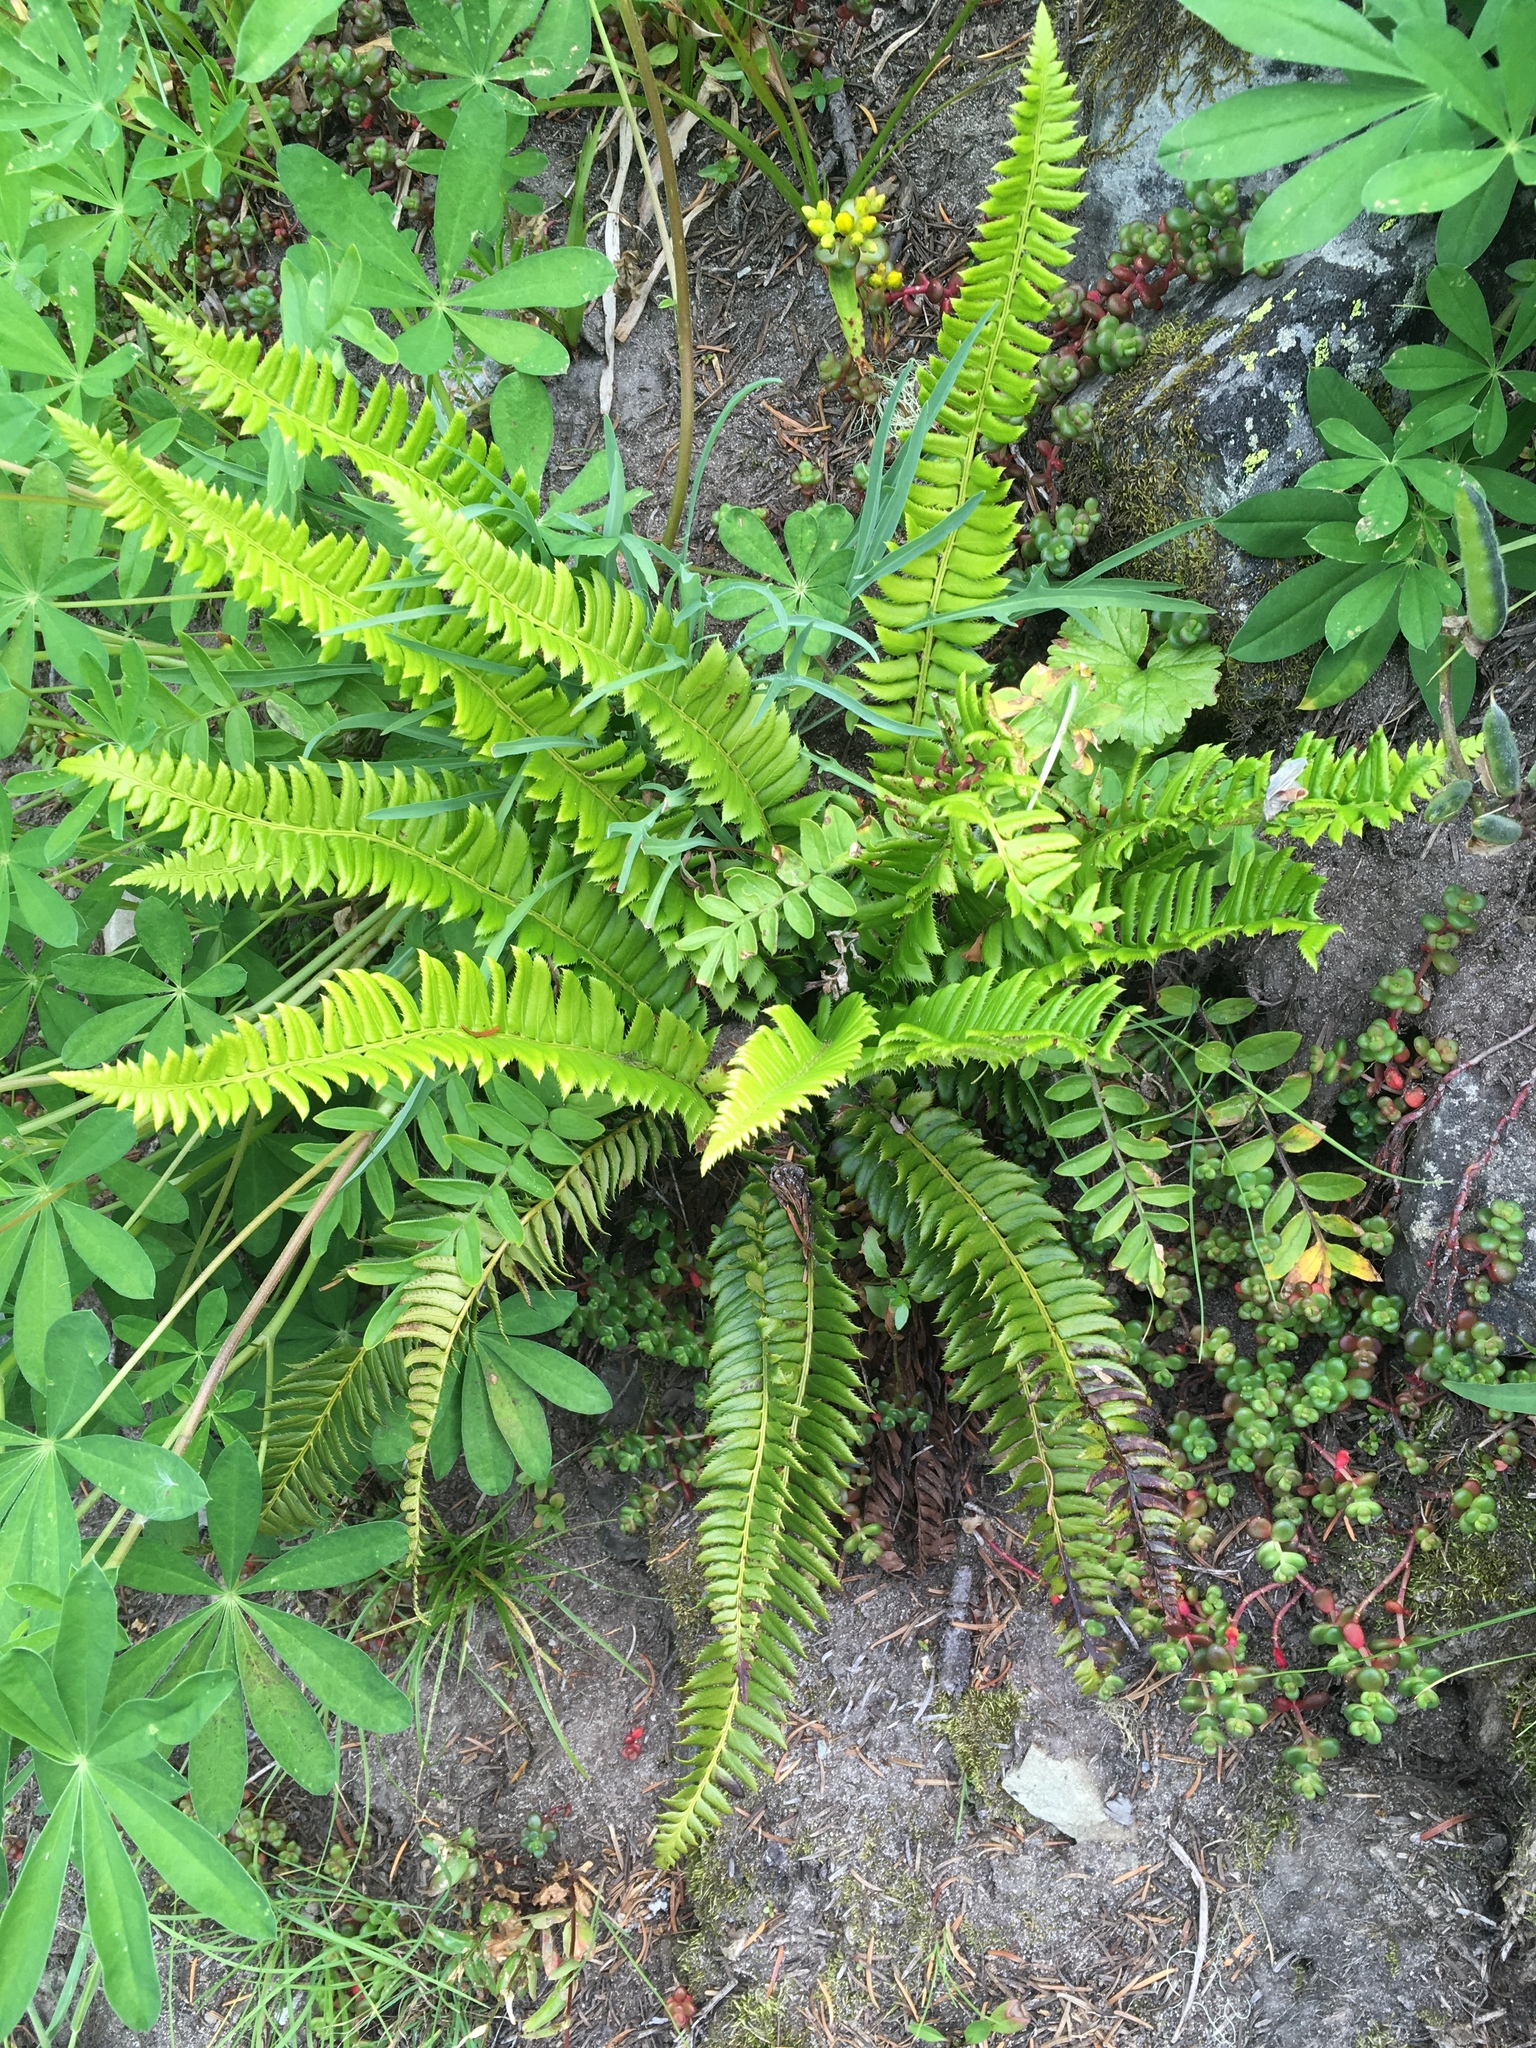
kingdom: Plantae
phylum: Tracheophyta
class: Polypodiopsida
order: Polypodiales
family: Dryopteridaceae
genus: Polystichum
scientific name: Polystichum lonchitis
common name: Holly fern
